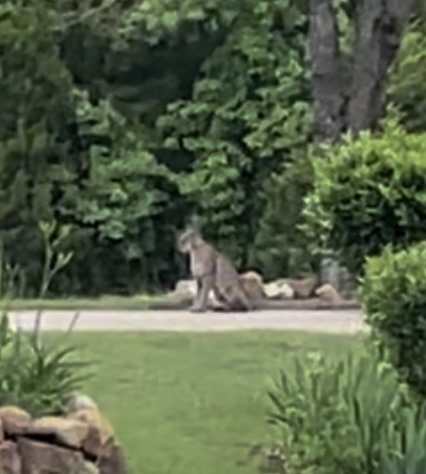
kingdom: Animalia
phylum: Chordata
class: Mammalia
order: Carnivora
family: Felidae
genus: Lynx
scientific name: Lynx rufus
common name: Bobcat
